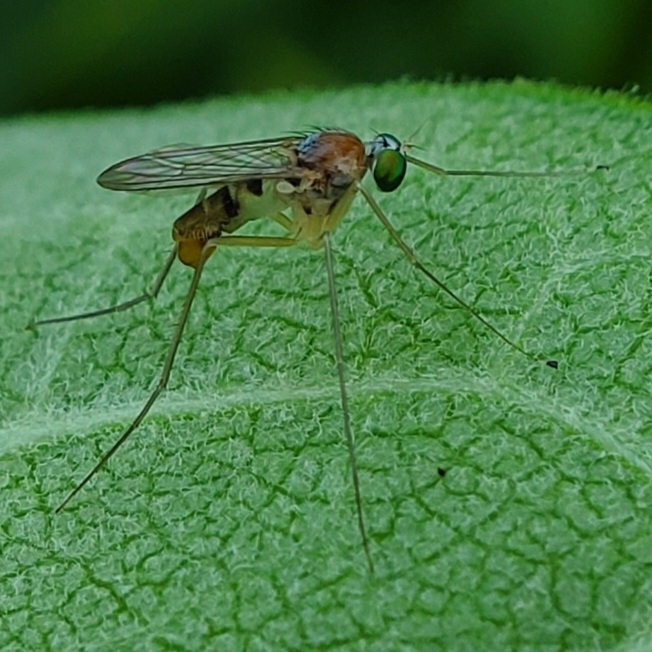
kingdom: Animalia
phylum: Arthropoda
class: Insecta
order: Diptera
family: Dolichopodidae
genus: Neurigona
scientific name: Neurigona carbonifer
